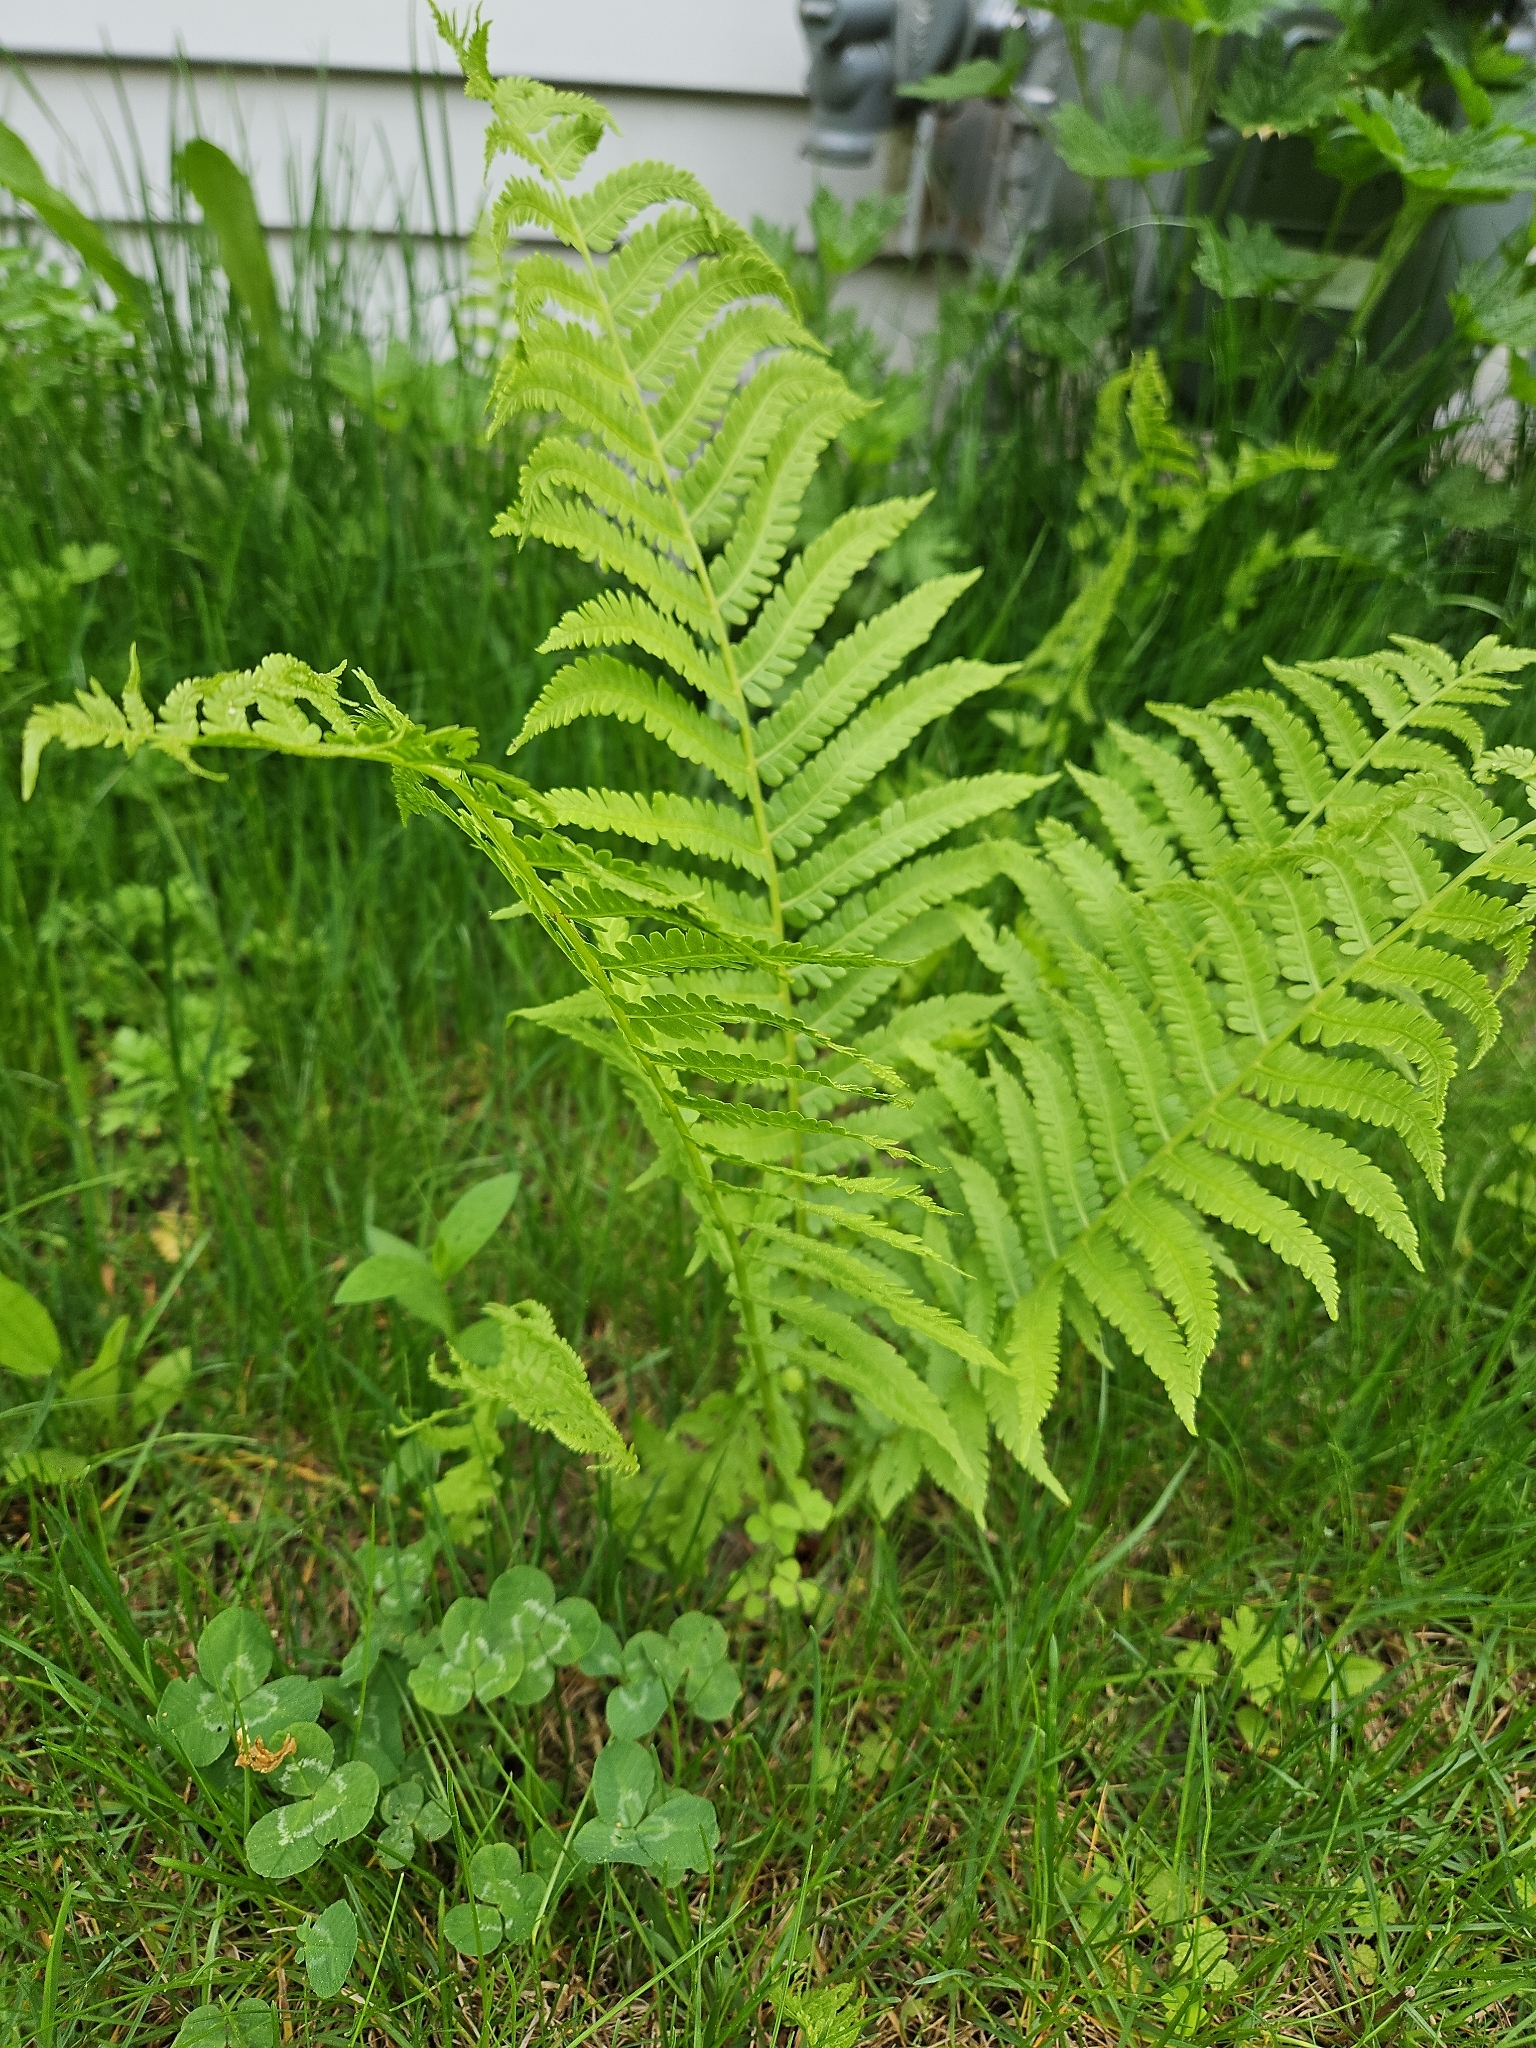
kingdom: Plantae
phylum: Tracheophyta
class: Polypodiopsida
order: Polypodiales
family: Onocleaceae
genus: Matteuccia
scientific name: Matteuccia struthiopteris
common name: Ostrich fern
